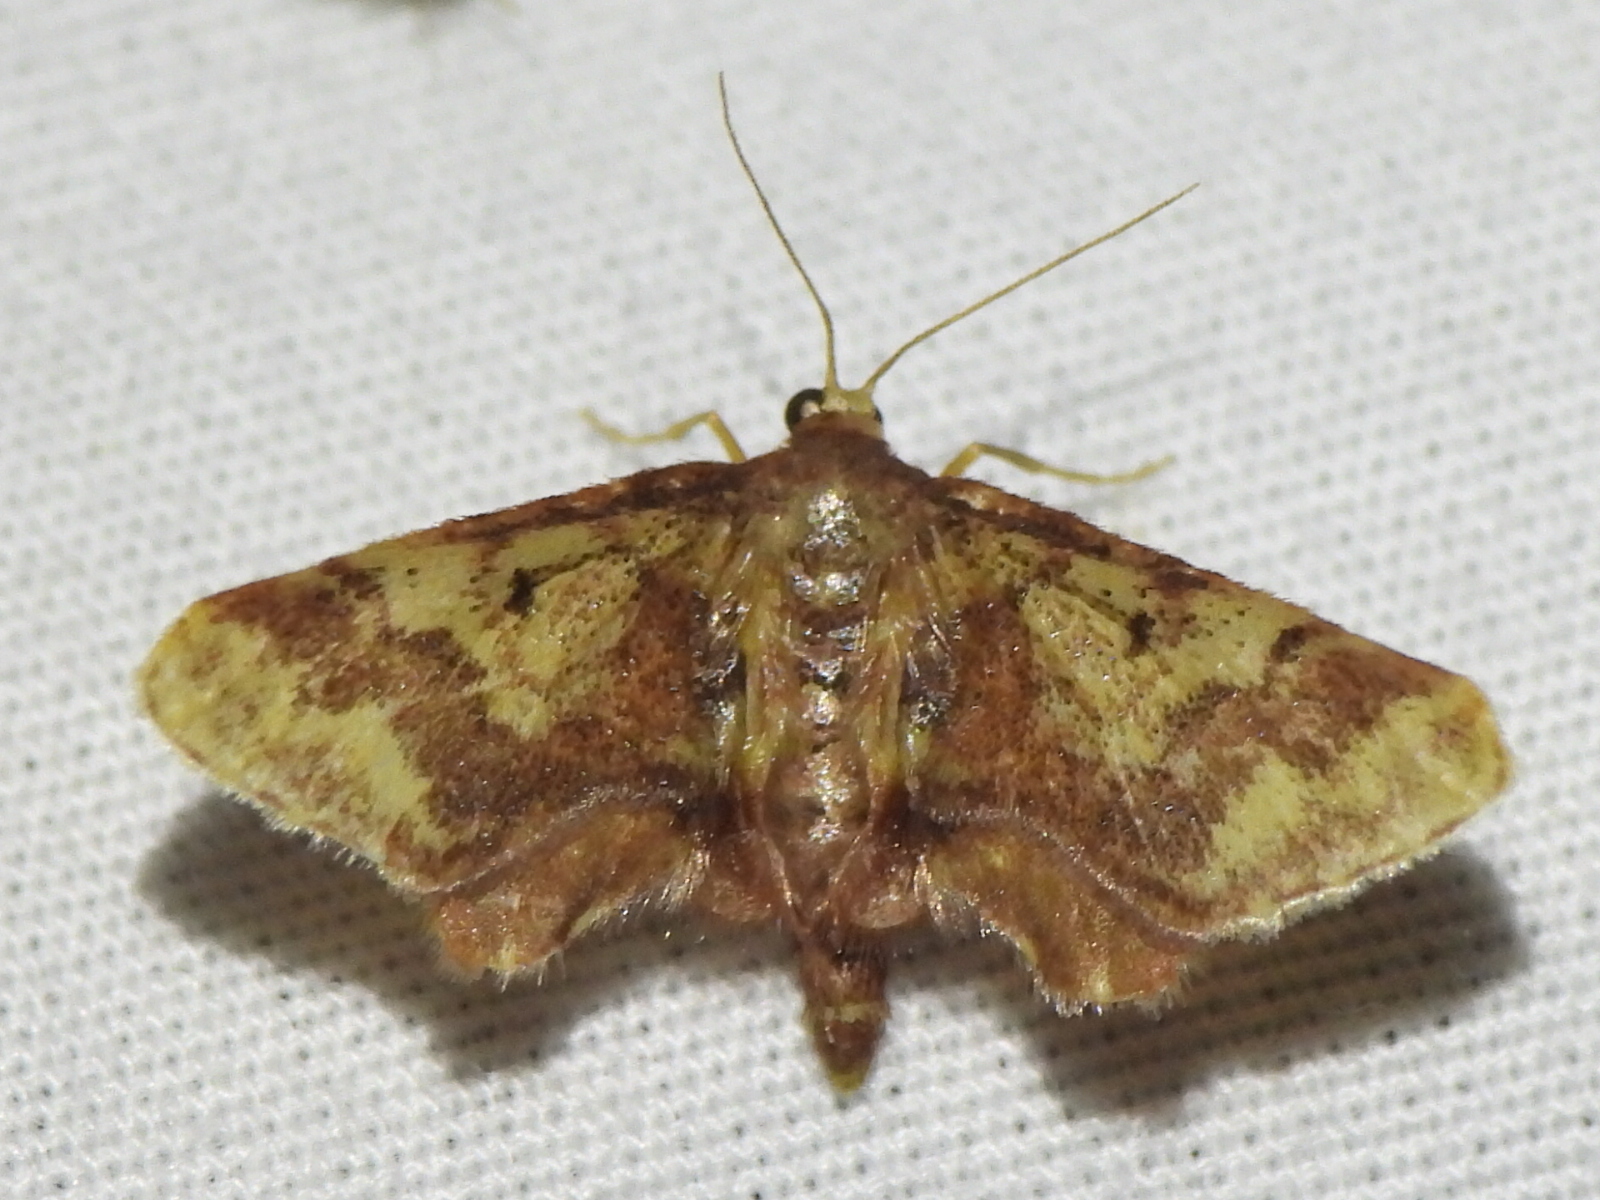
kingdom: Animalia
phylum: Arthropoda
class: Insecta
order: Lepidoptera
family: Geometridae
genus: Idaea
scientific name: Idaea furciferata
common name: Notch-winged wave
